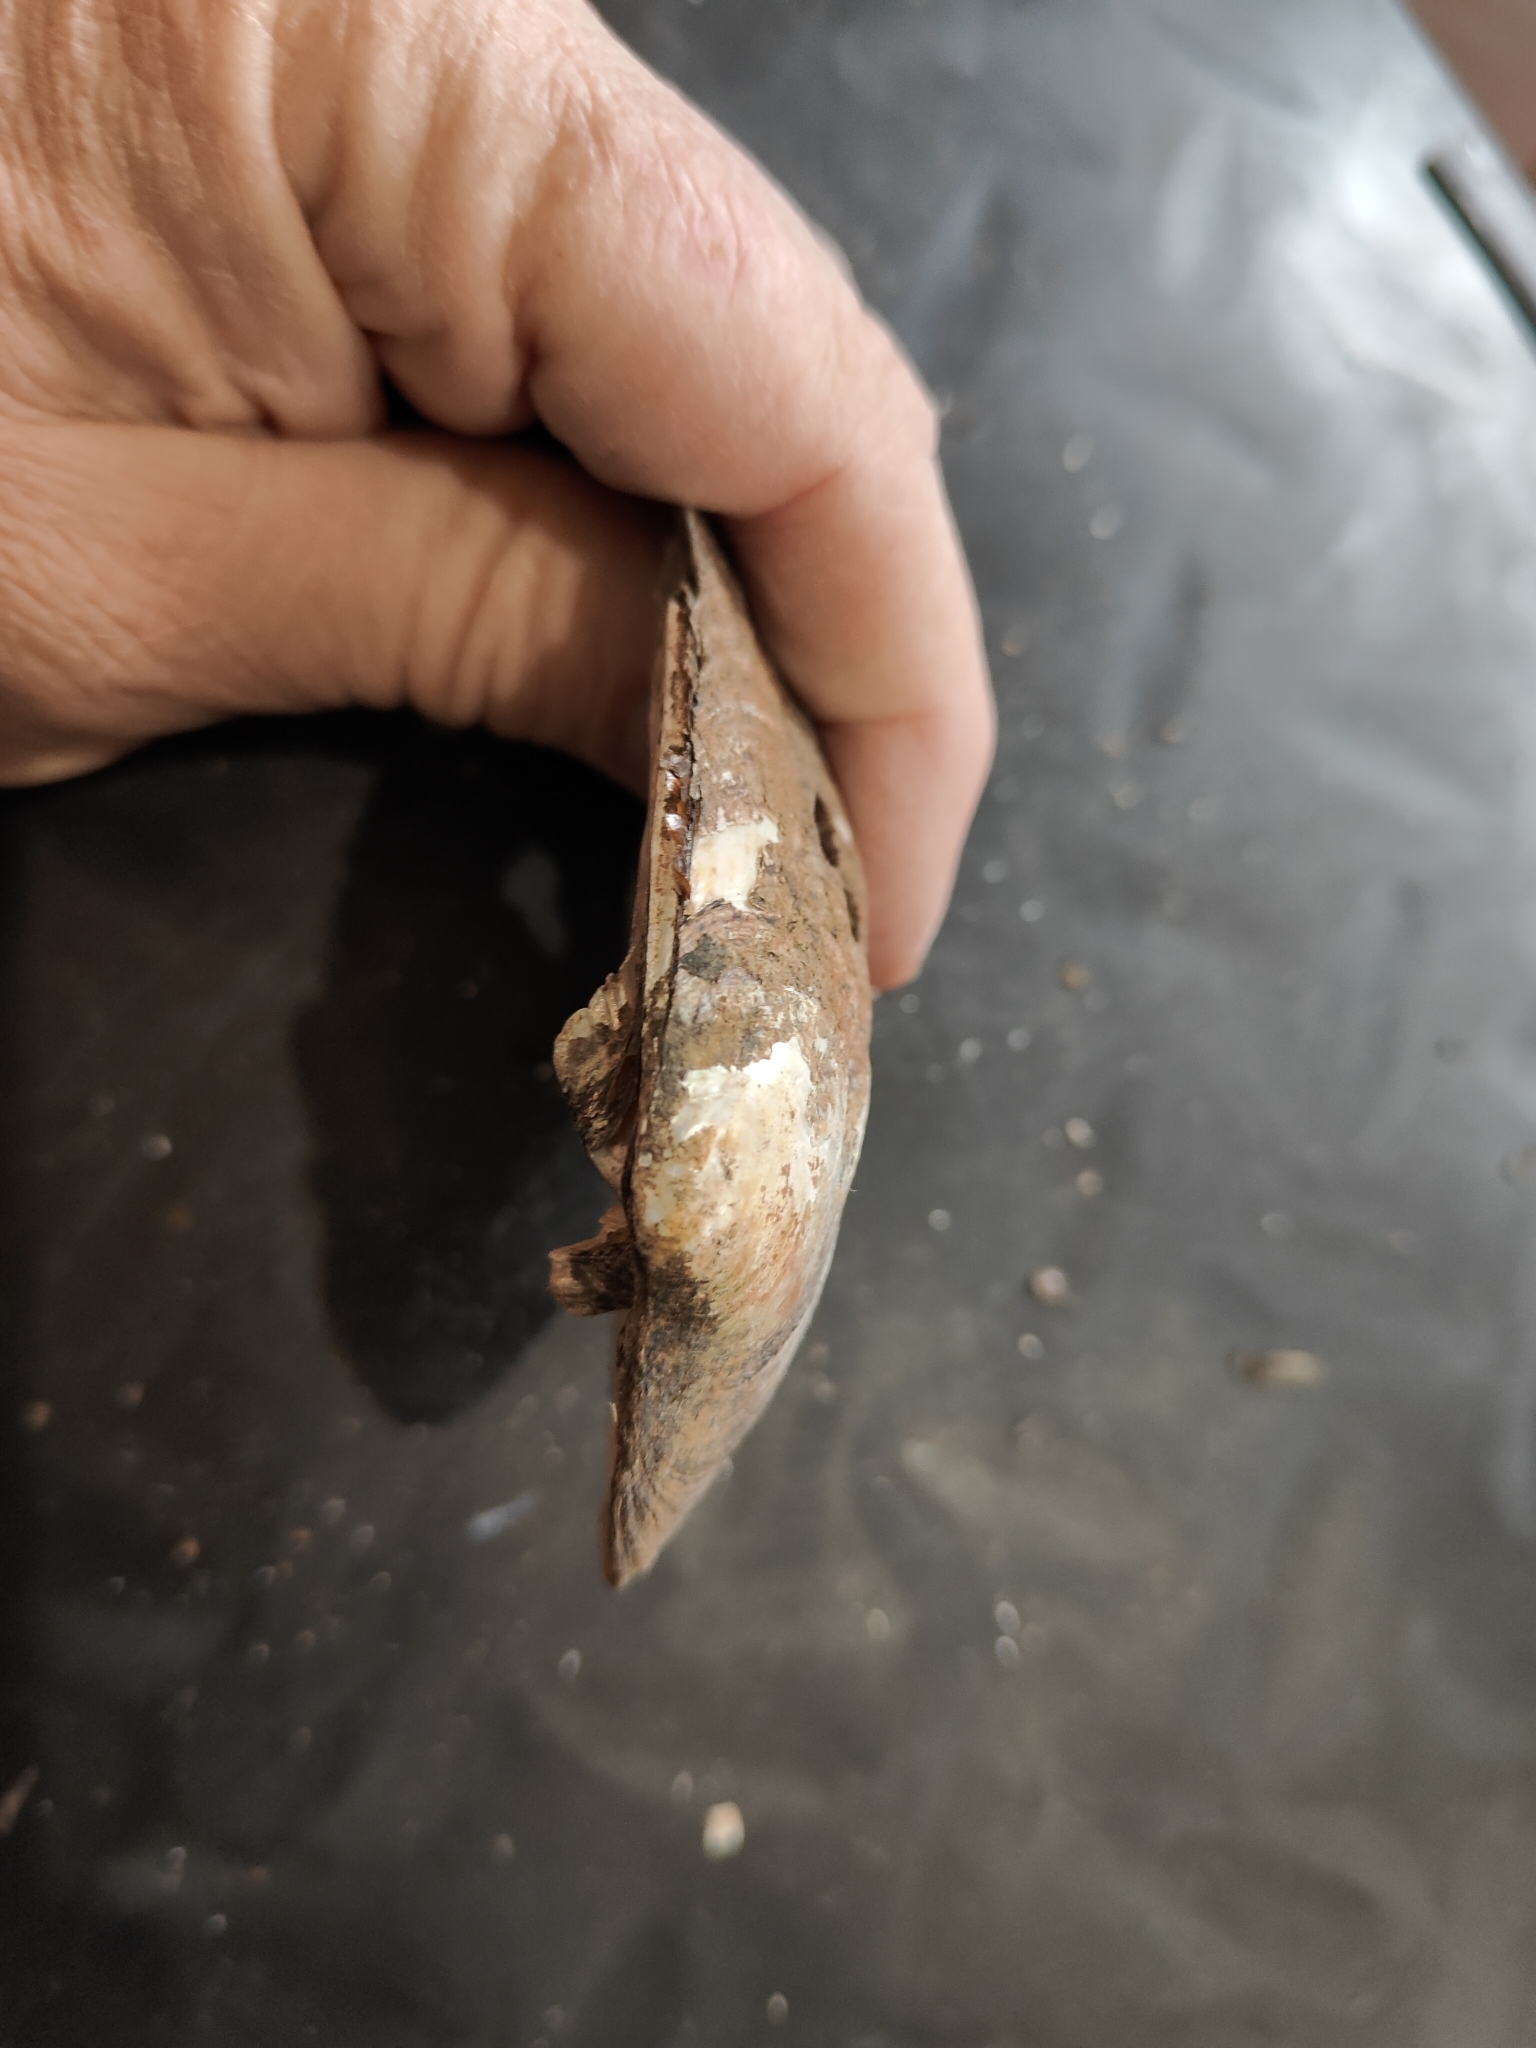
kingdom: Animalia
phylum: Mollusca
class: Bivalvia
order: Unionida
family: Unionidae
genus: Amblema
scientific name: Amblema plicata
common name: Threeridge
